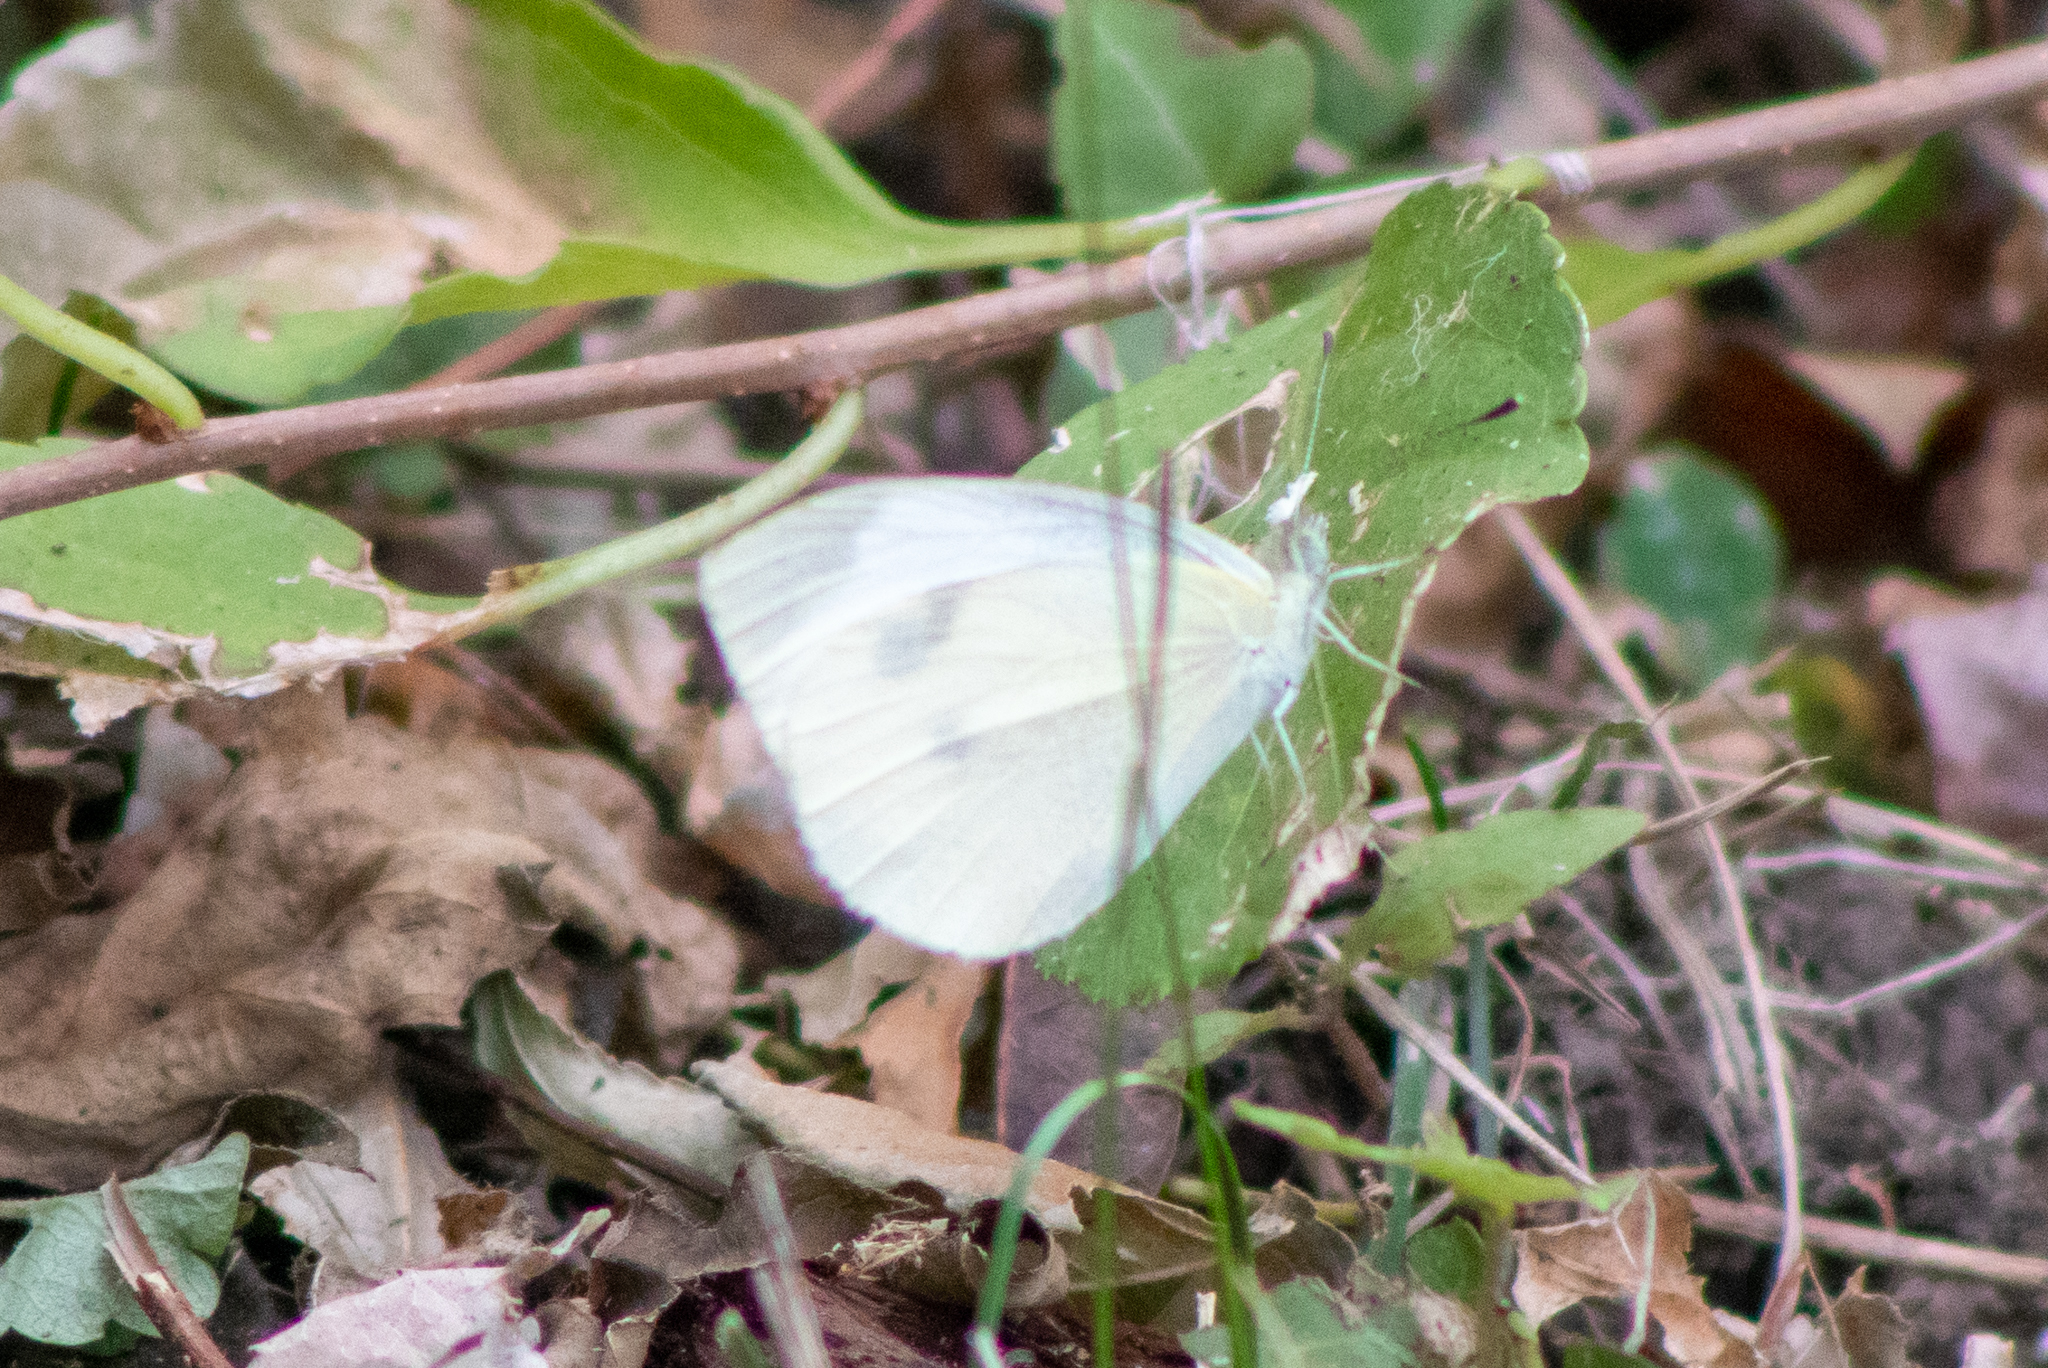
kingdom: Animalia
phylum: Arthropoda
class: Insecta
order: Lepidoptera
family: Pieridae
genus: Pieris
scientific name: Pieris rapae
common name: Small white
